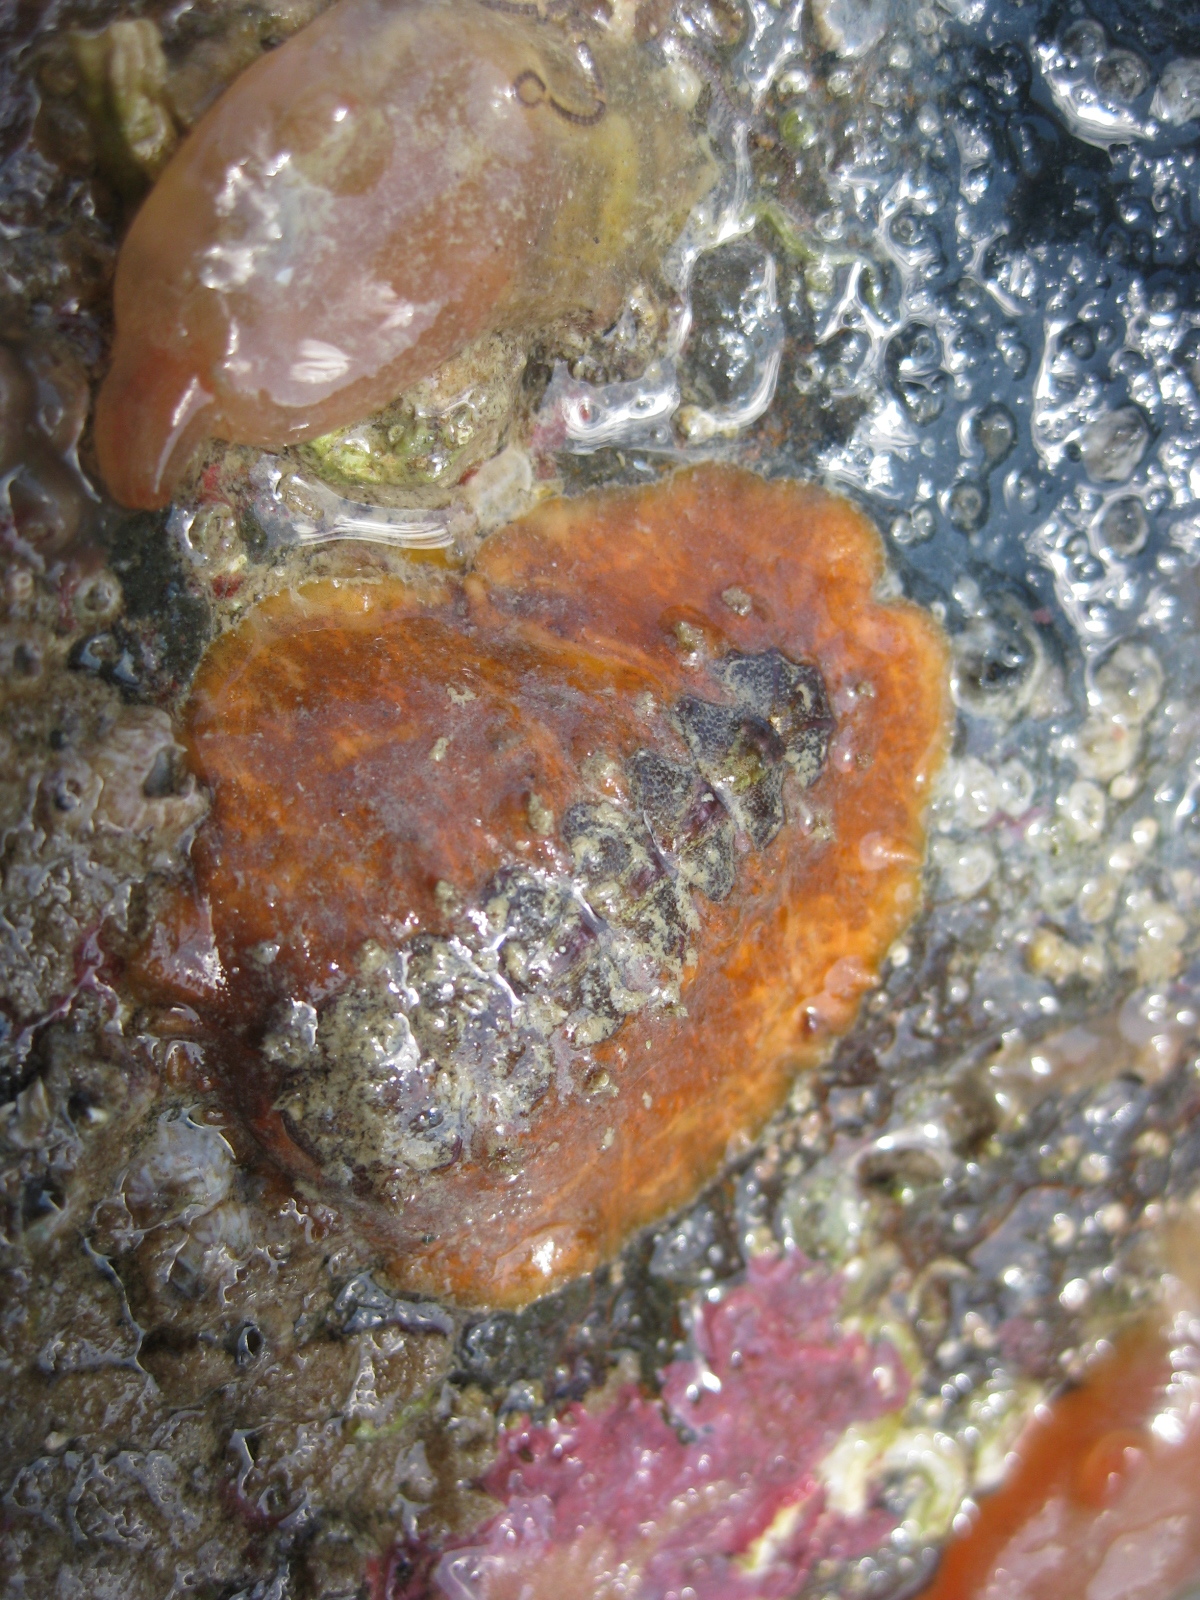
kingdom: Animalia
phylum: Mollusca
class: Polyplacophora
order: Chitonida
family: Acanthochitonidae
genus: Notoplax
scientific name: Notoplax violacea
